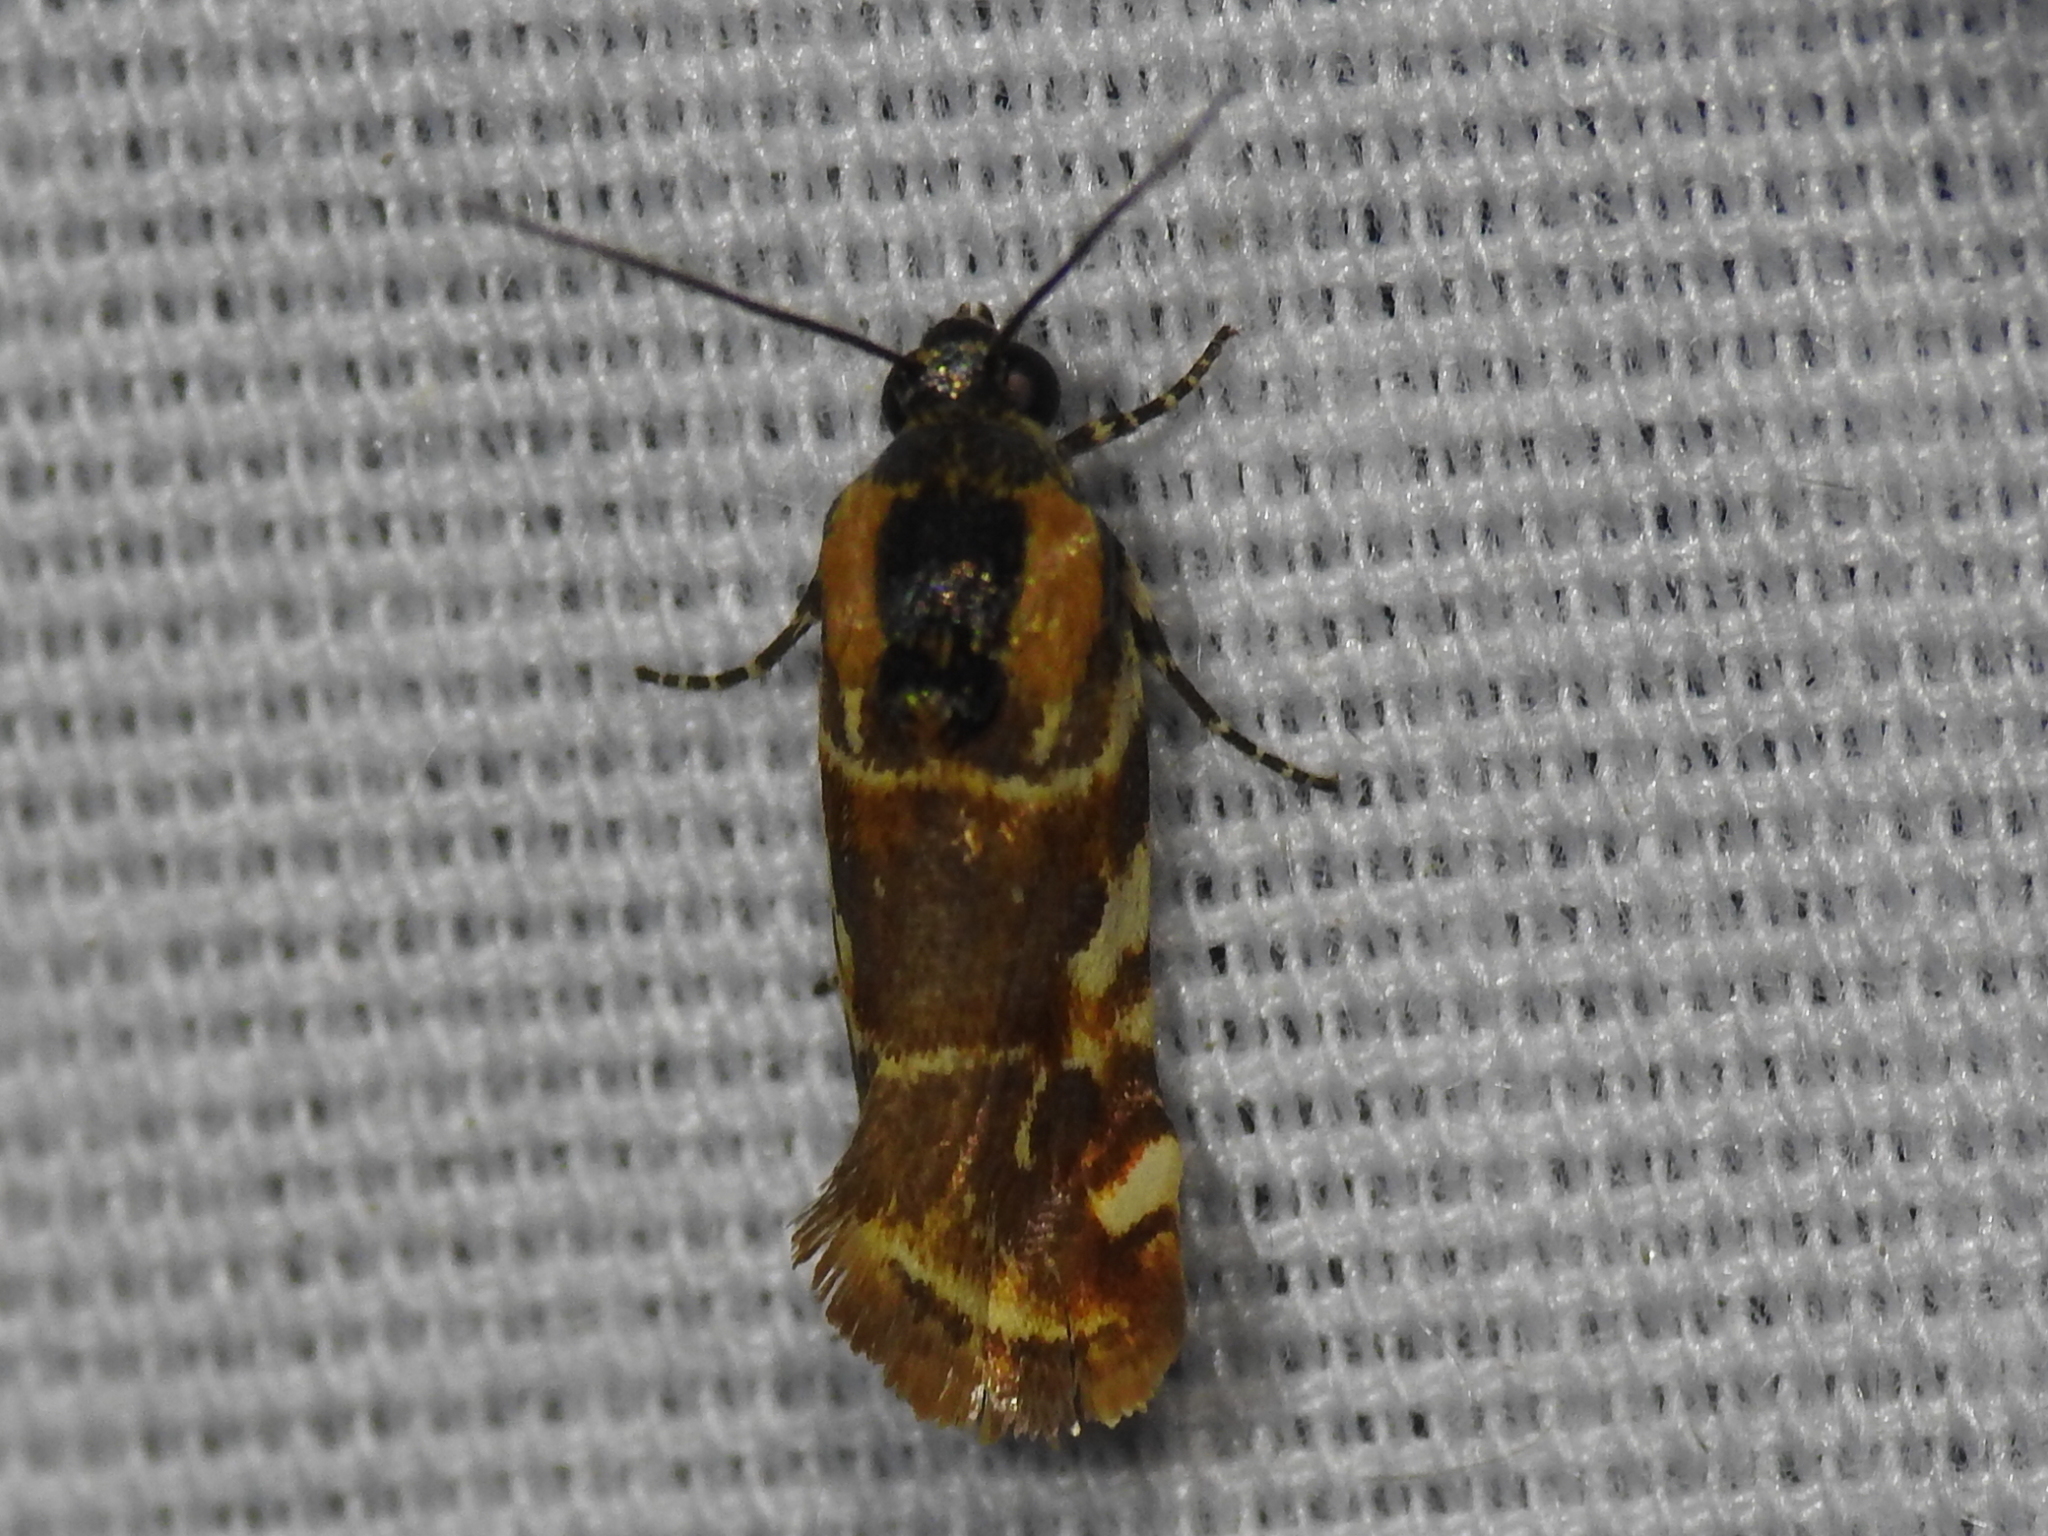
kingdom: Animalia
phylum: Arthropoda
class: Insecta
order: Lepidoptera
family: Noctuidae
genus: Spragueia
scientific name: Spragueia jaguaralis
